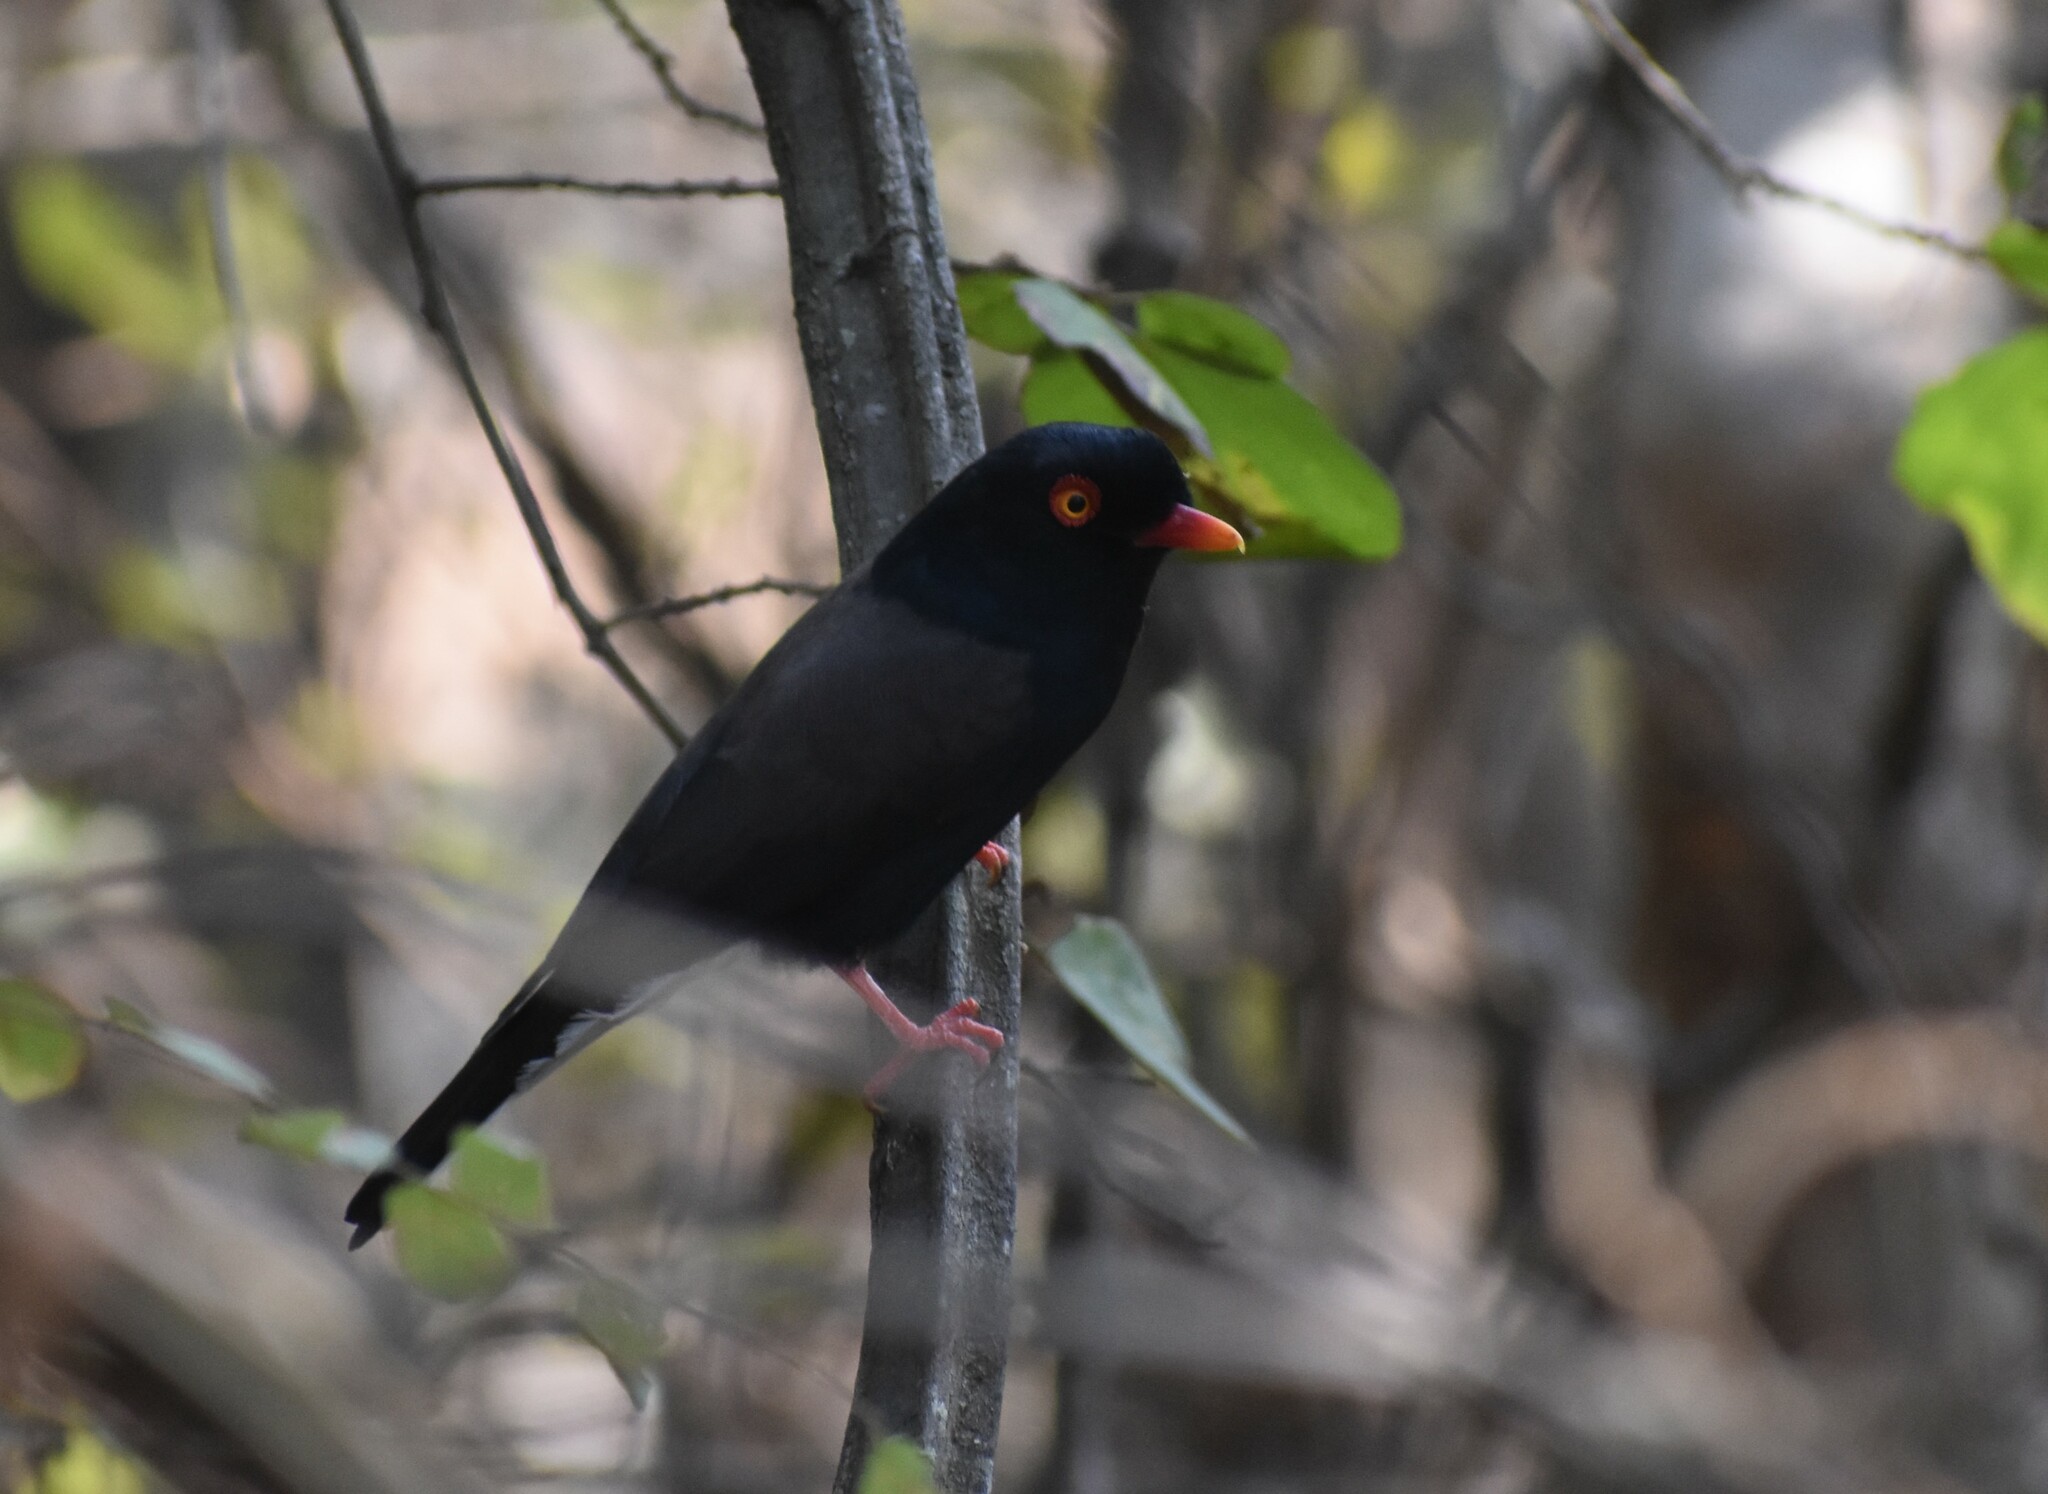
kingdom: Animalia
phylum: Chordata
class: Aves
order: Passeriformes
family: Prionopidae
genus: Prionops
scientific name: Prionops retzii
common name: Retz's helmetshrike
